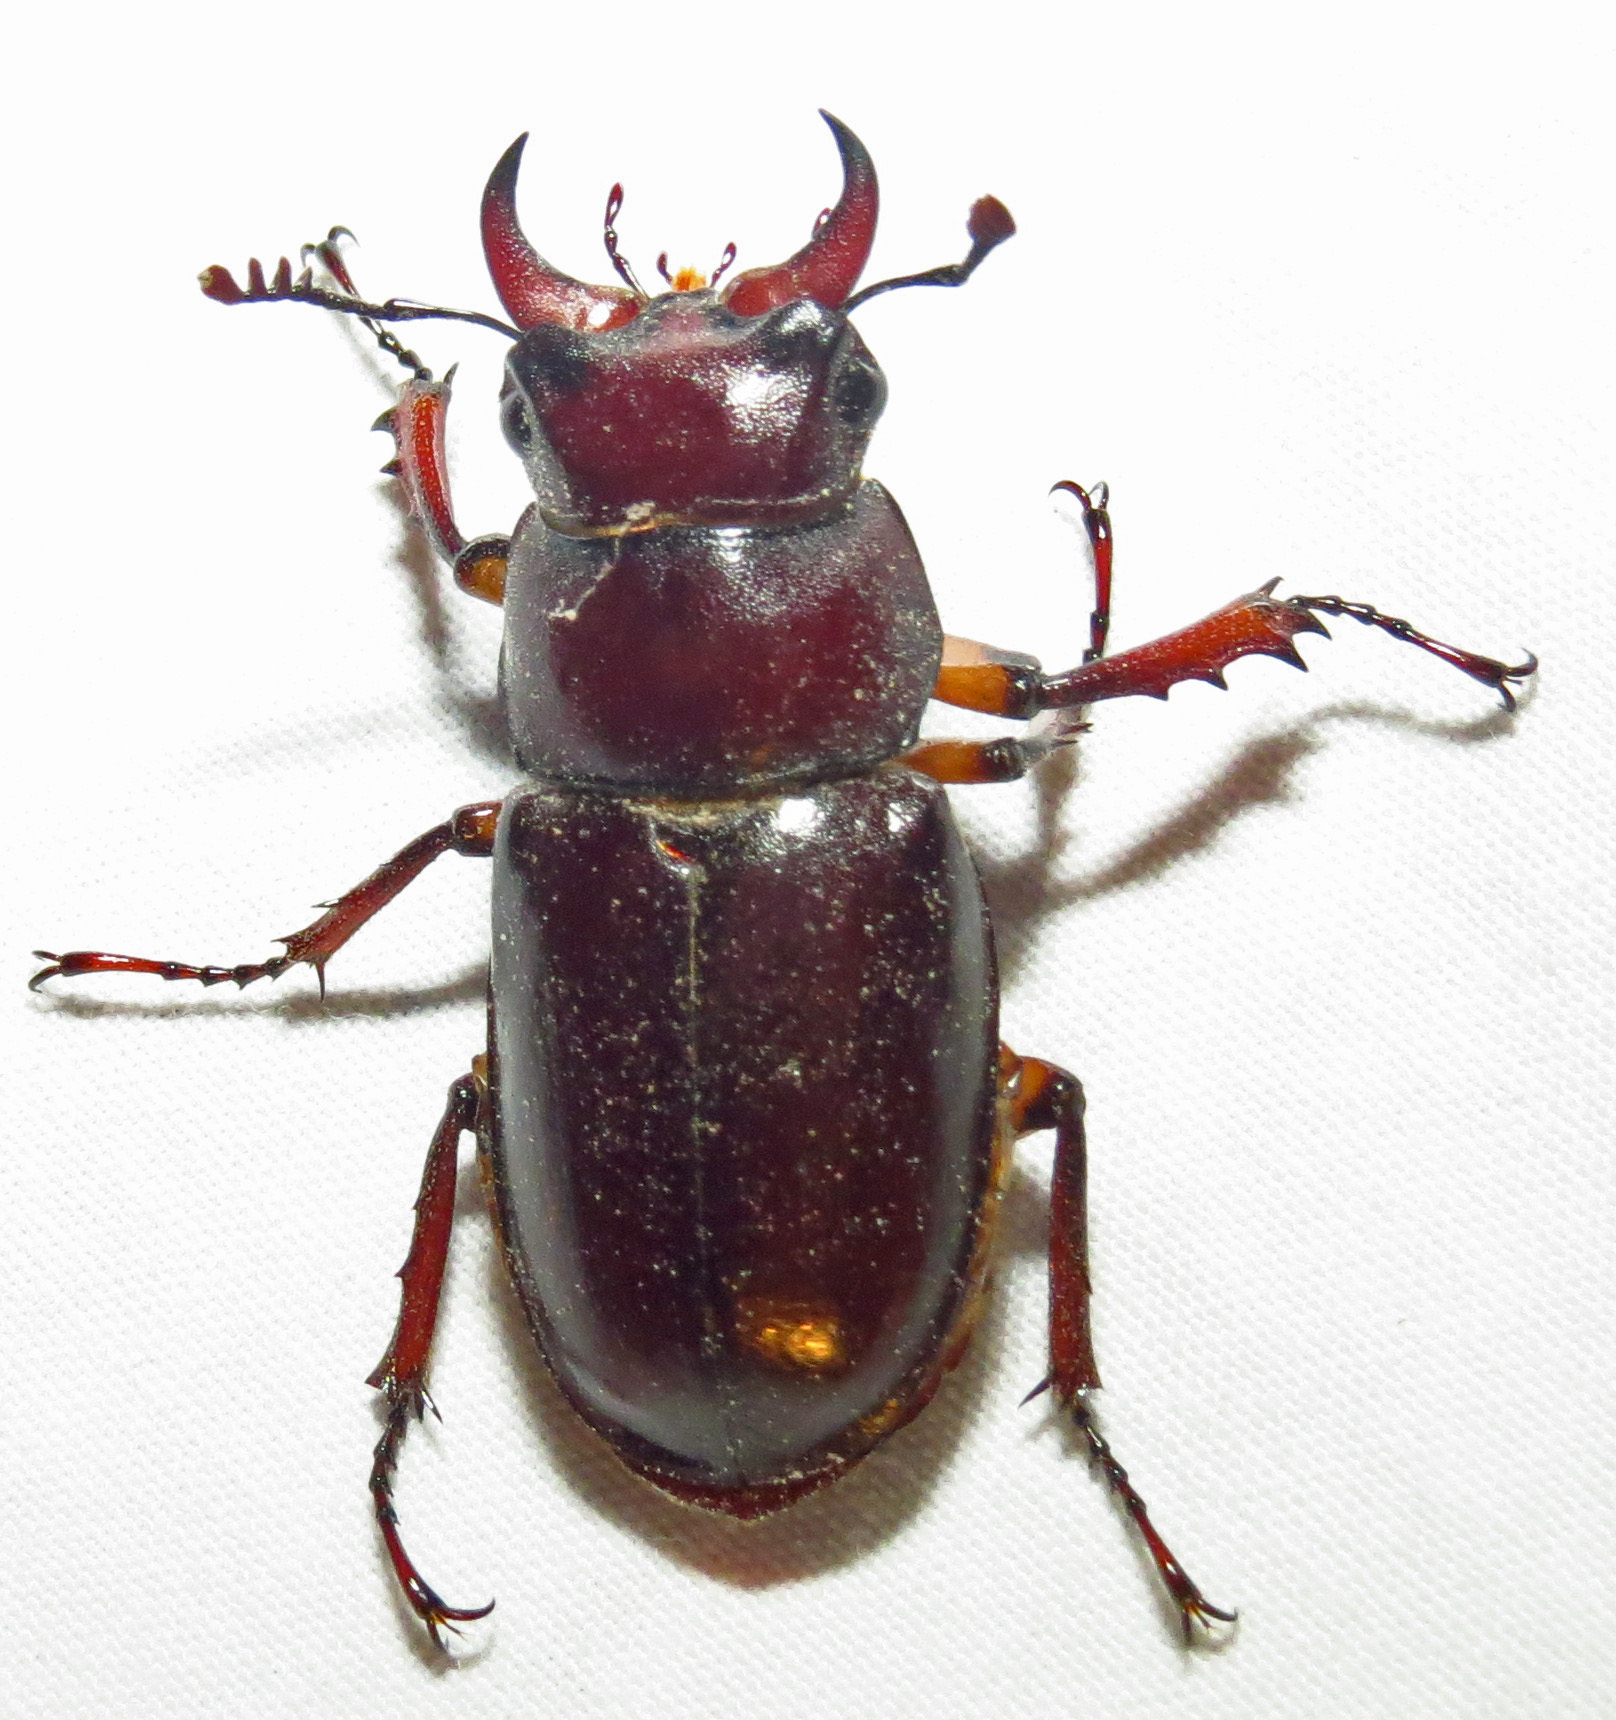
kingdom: Animalia
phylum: Arthropoda
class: Insecta
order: Coleoptera
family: Lucanidae
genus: Lucanus
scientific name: Lucanus capreolus
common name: Stag beetle
